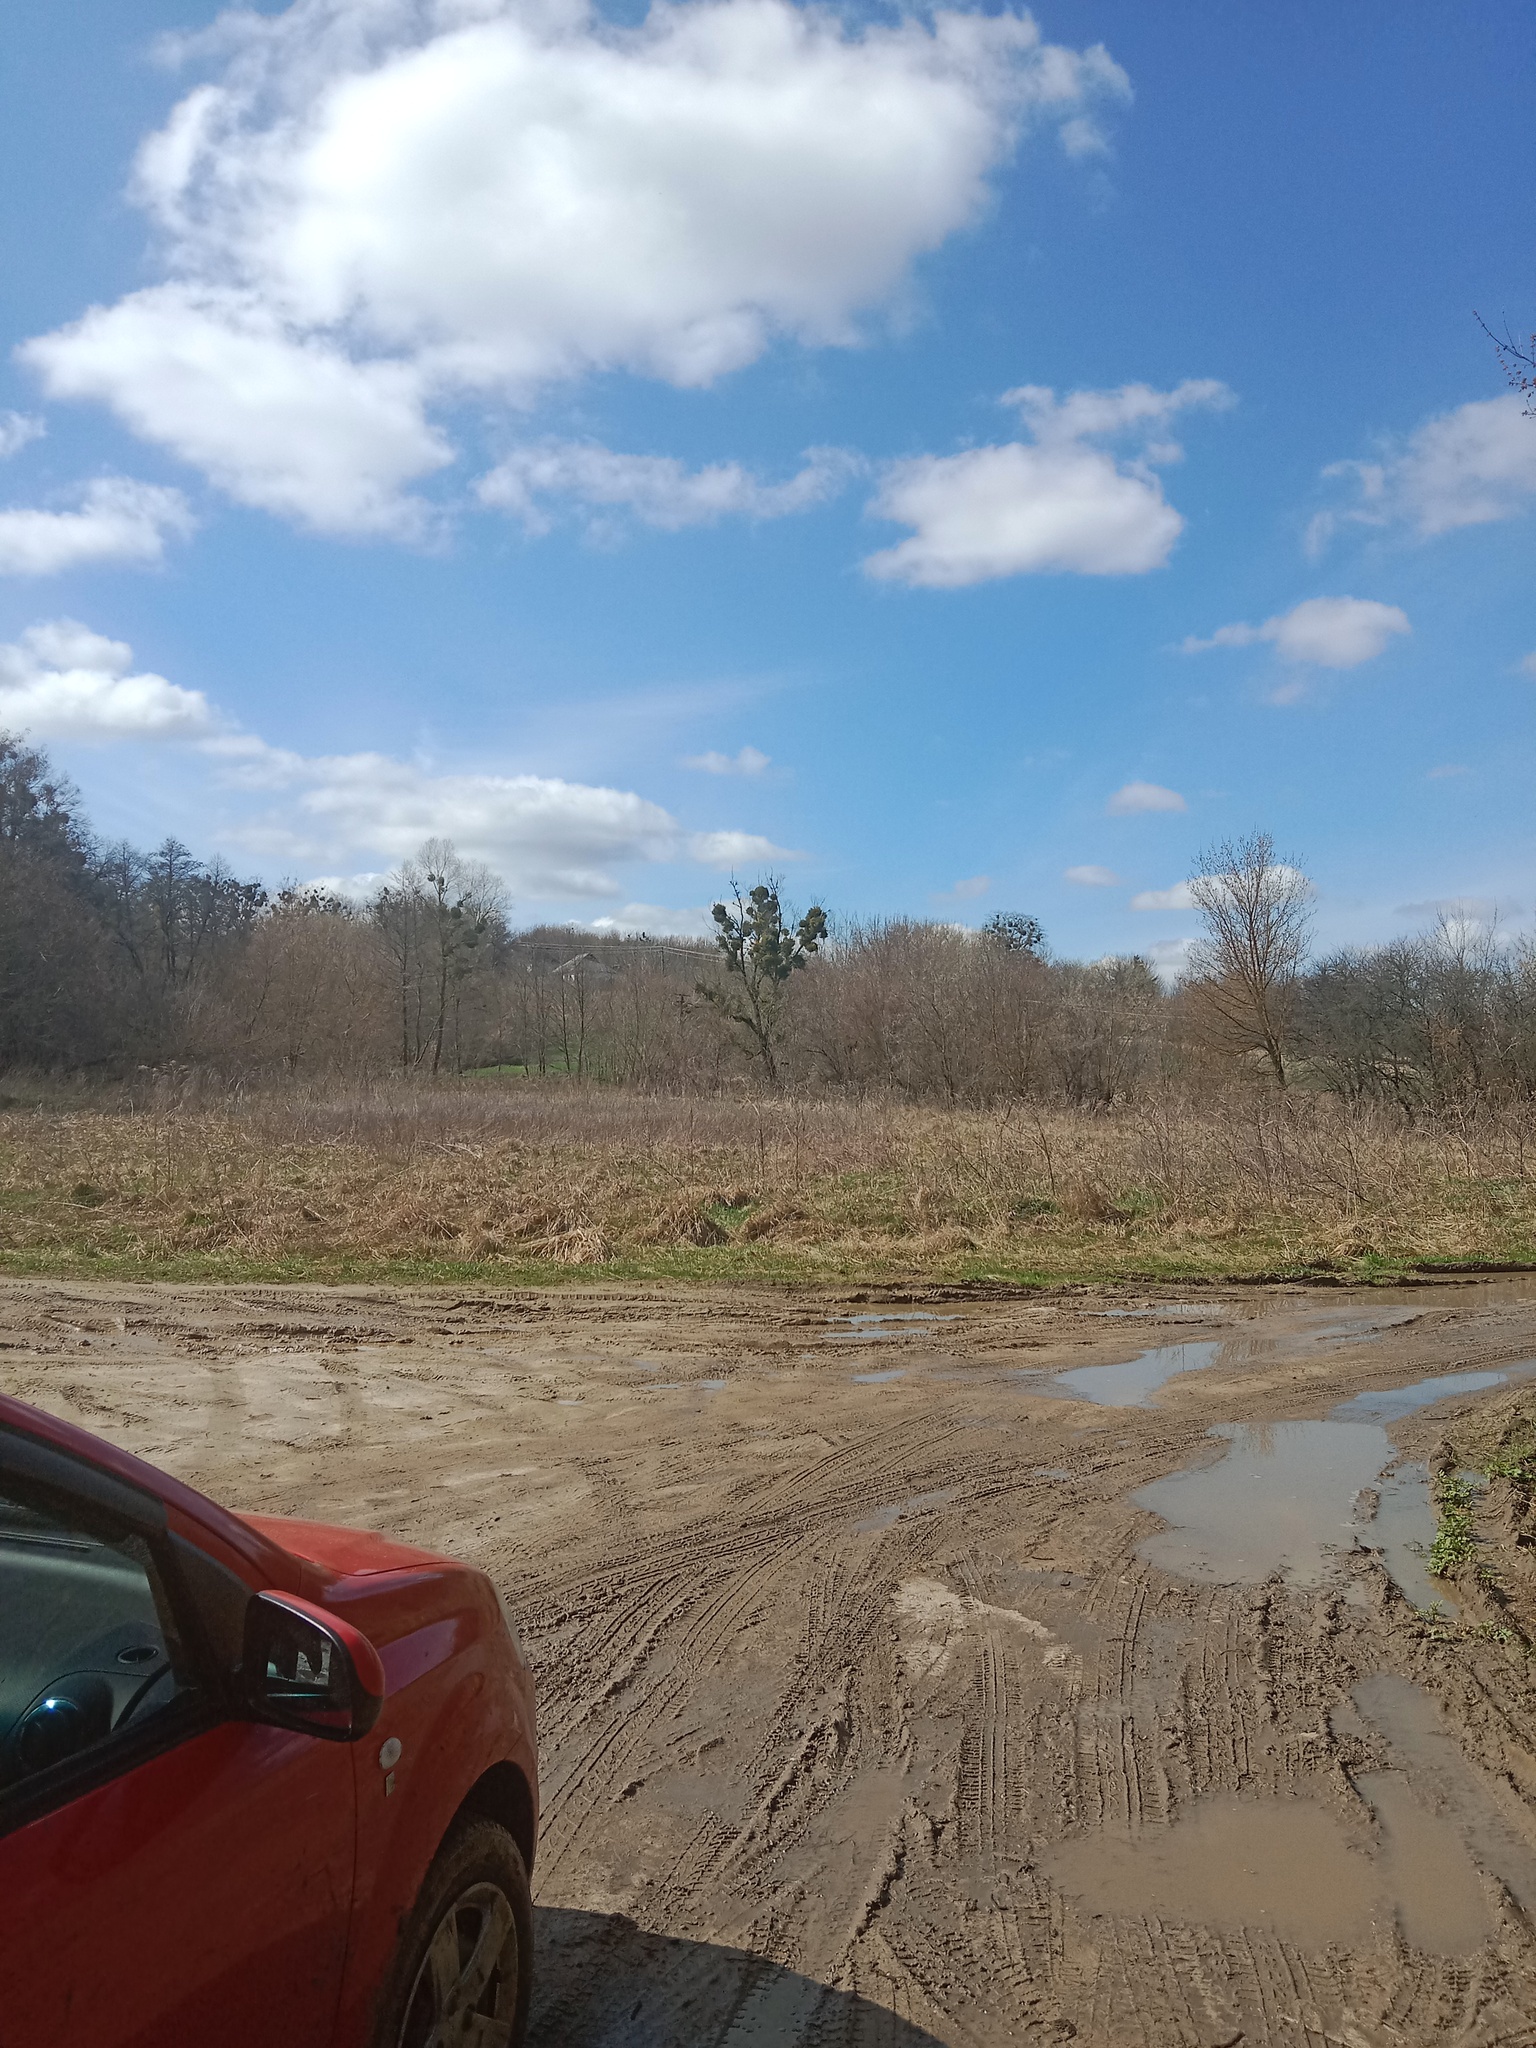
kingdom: Plantae
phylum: Tracheophyta
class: Magnoliopsida
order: Santalales
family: Viscaceae
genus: Viscum
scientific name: Viscum album
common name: Mistletoe
